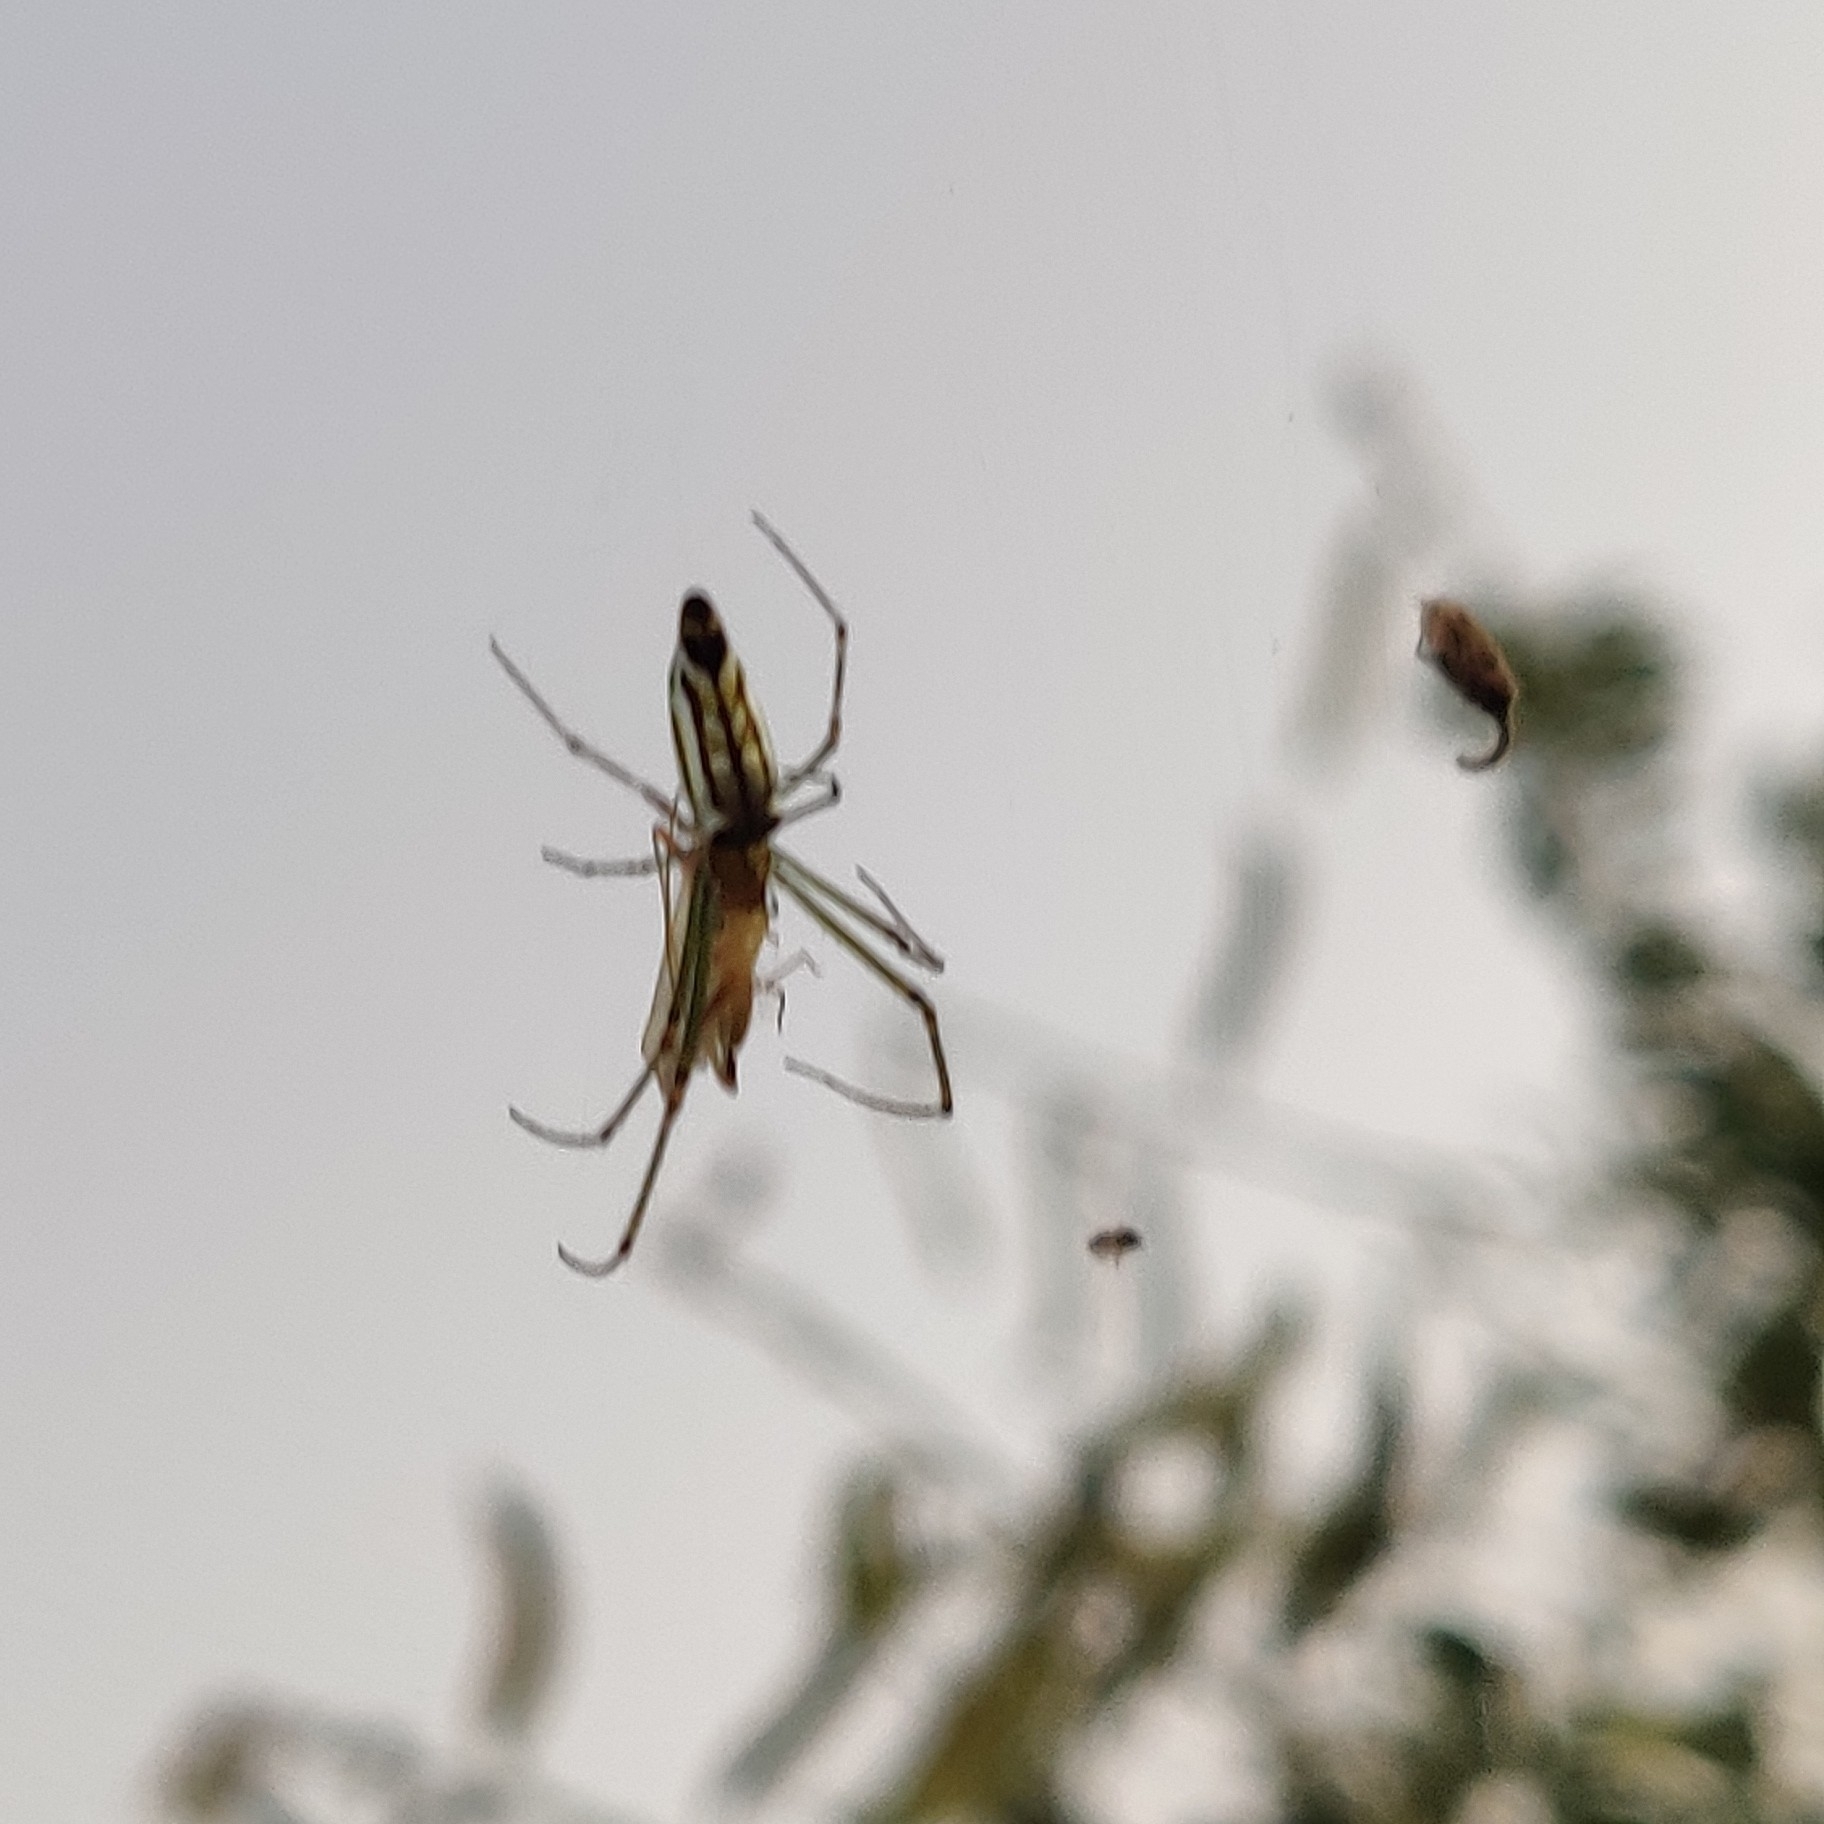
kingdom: Animalia
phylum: Arthropoda
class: Arachnida
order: Araneae
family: Tetragnathidae
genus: Leucauge
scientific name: Leucauge decorata
